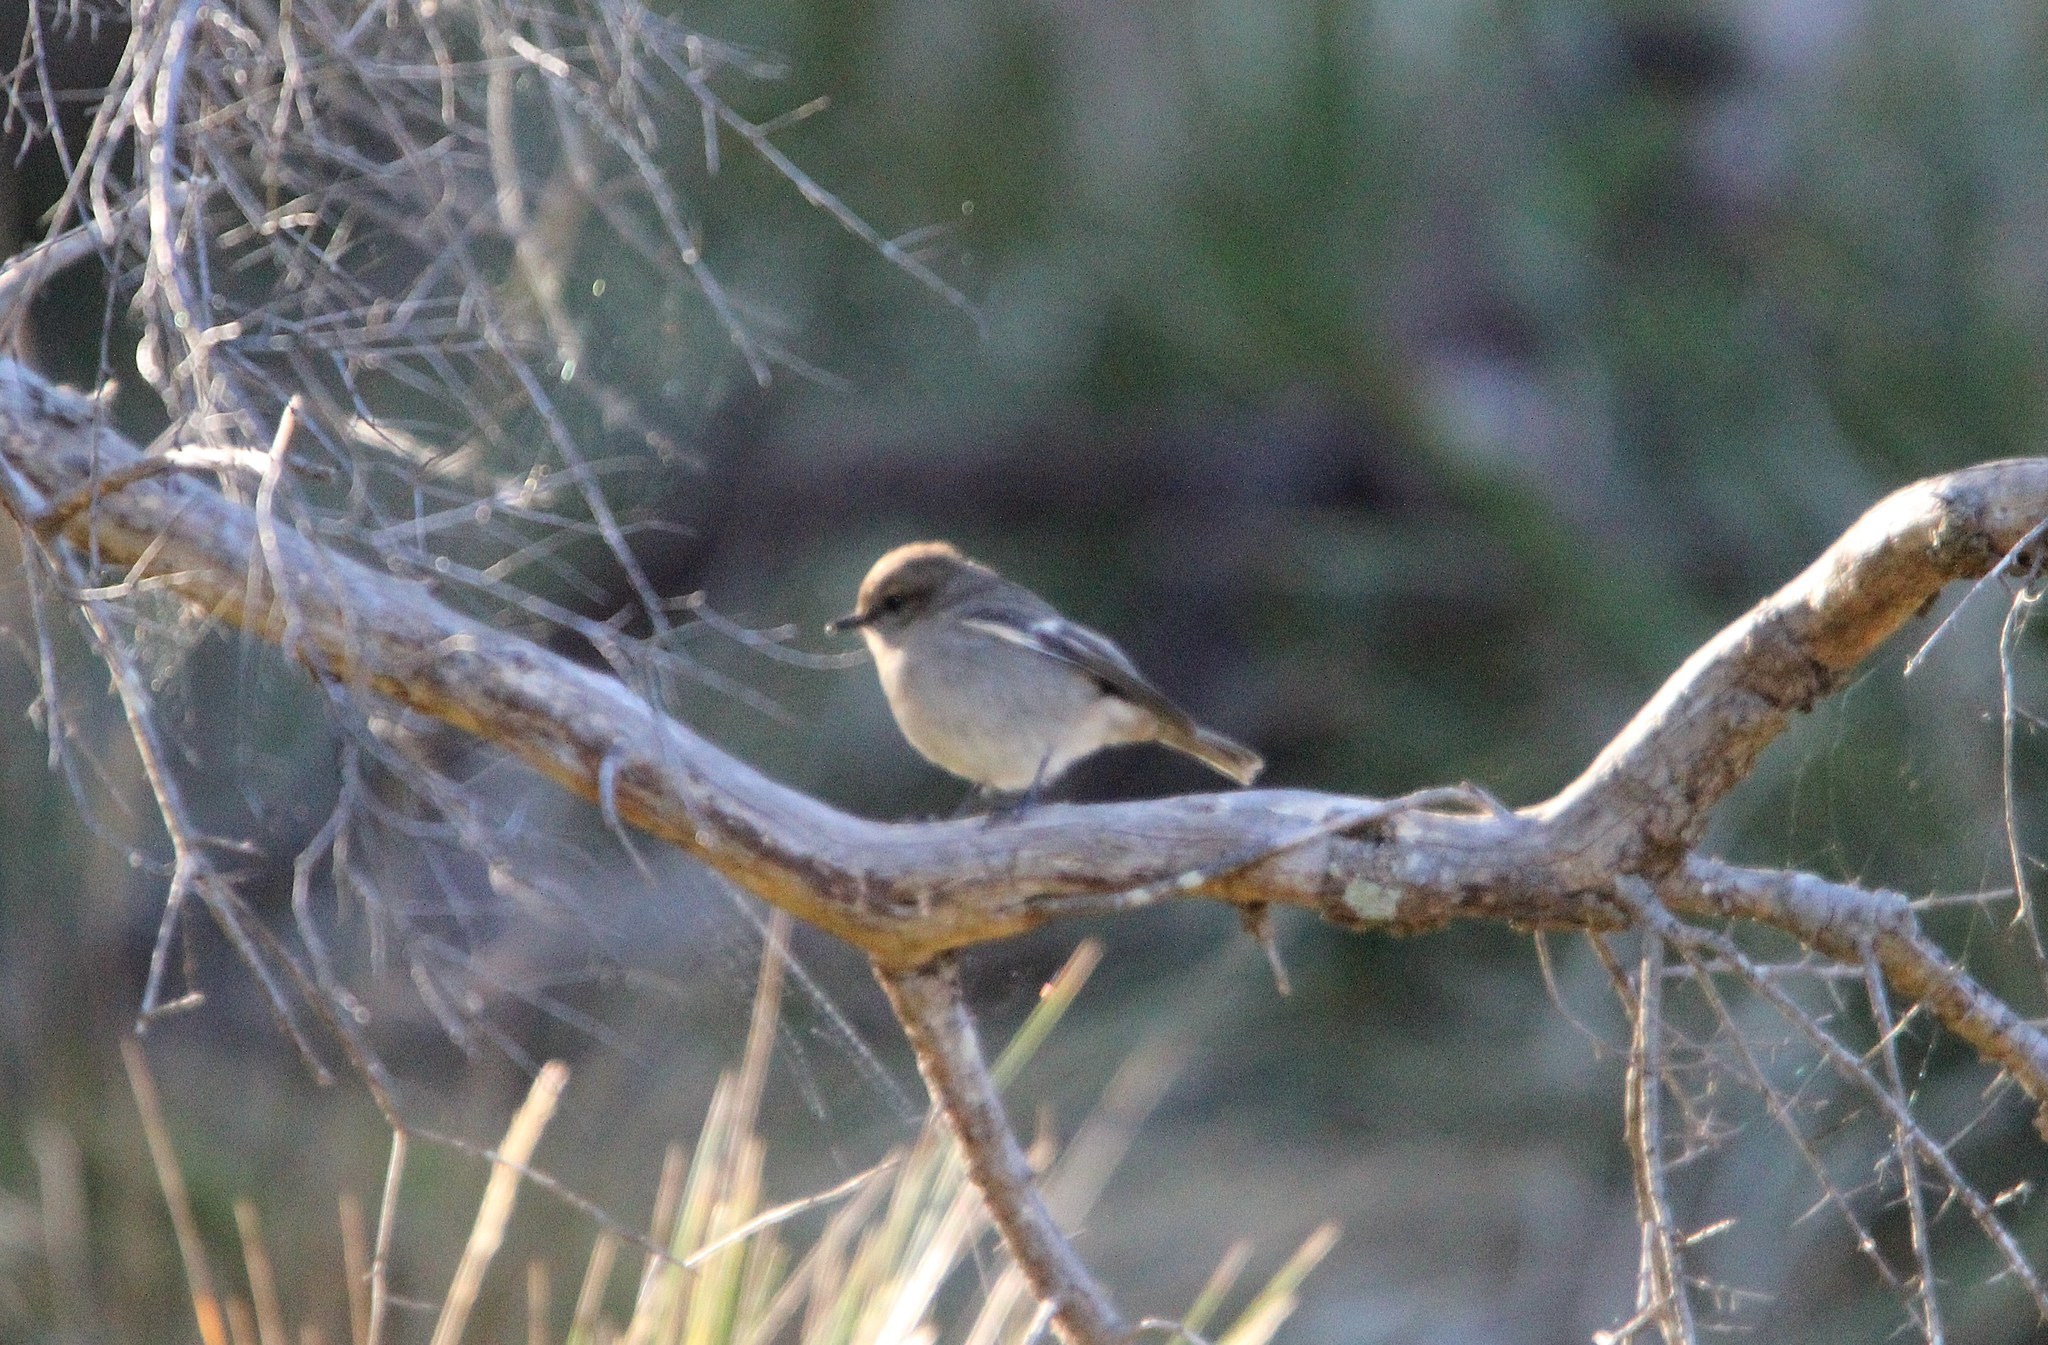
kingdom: Animalia
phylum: Chordata
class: Aves
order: Passeriformes
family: Petroicidae
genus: Melanodryas
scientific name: Melanodryas vittata
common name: Dusky robin
